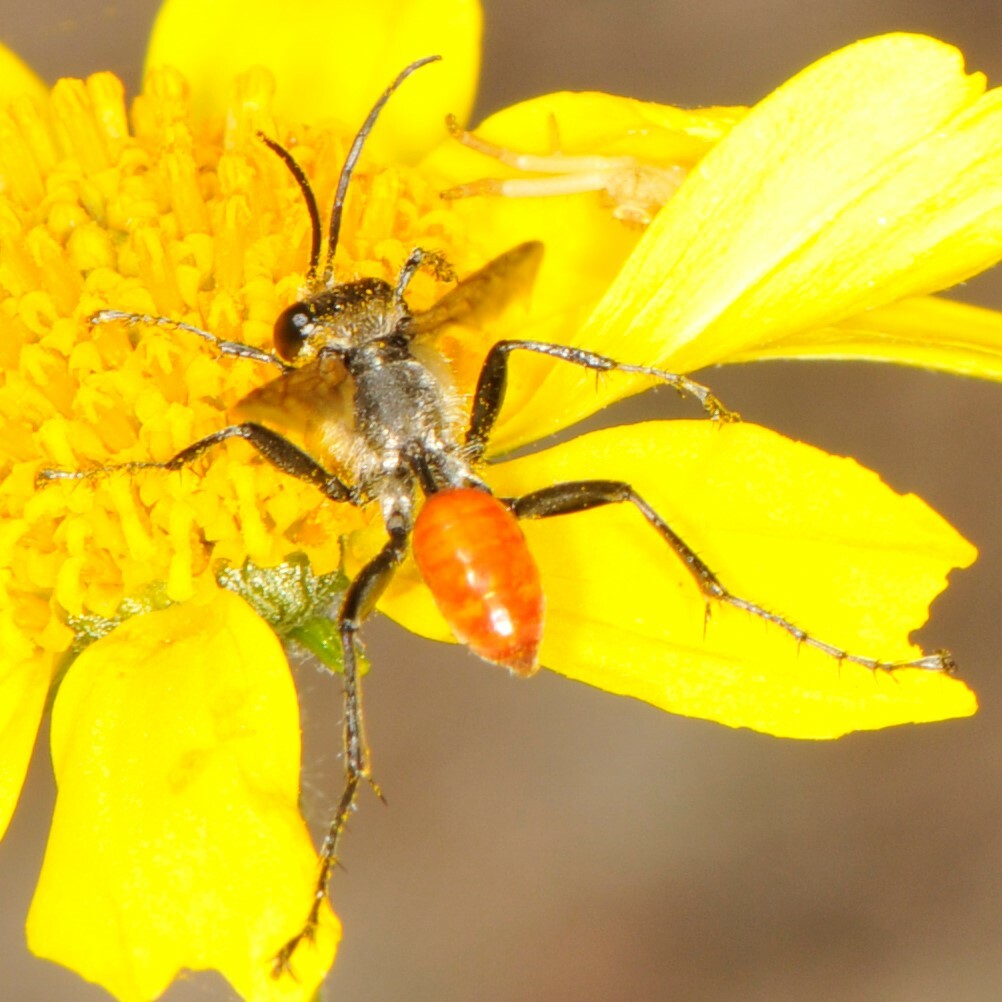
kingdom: Animalia
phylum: Arthropoda
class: Insecta
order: Hymenoptera
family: Sphecidae
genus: Prionyx
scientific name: Prionyx
